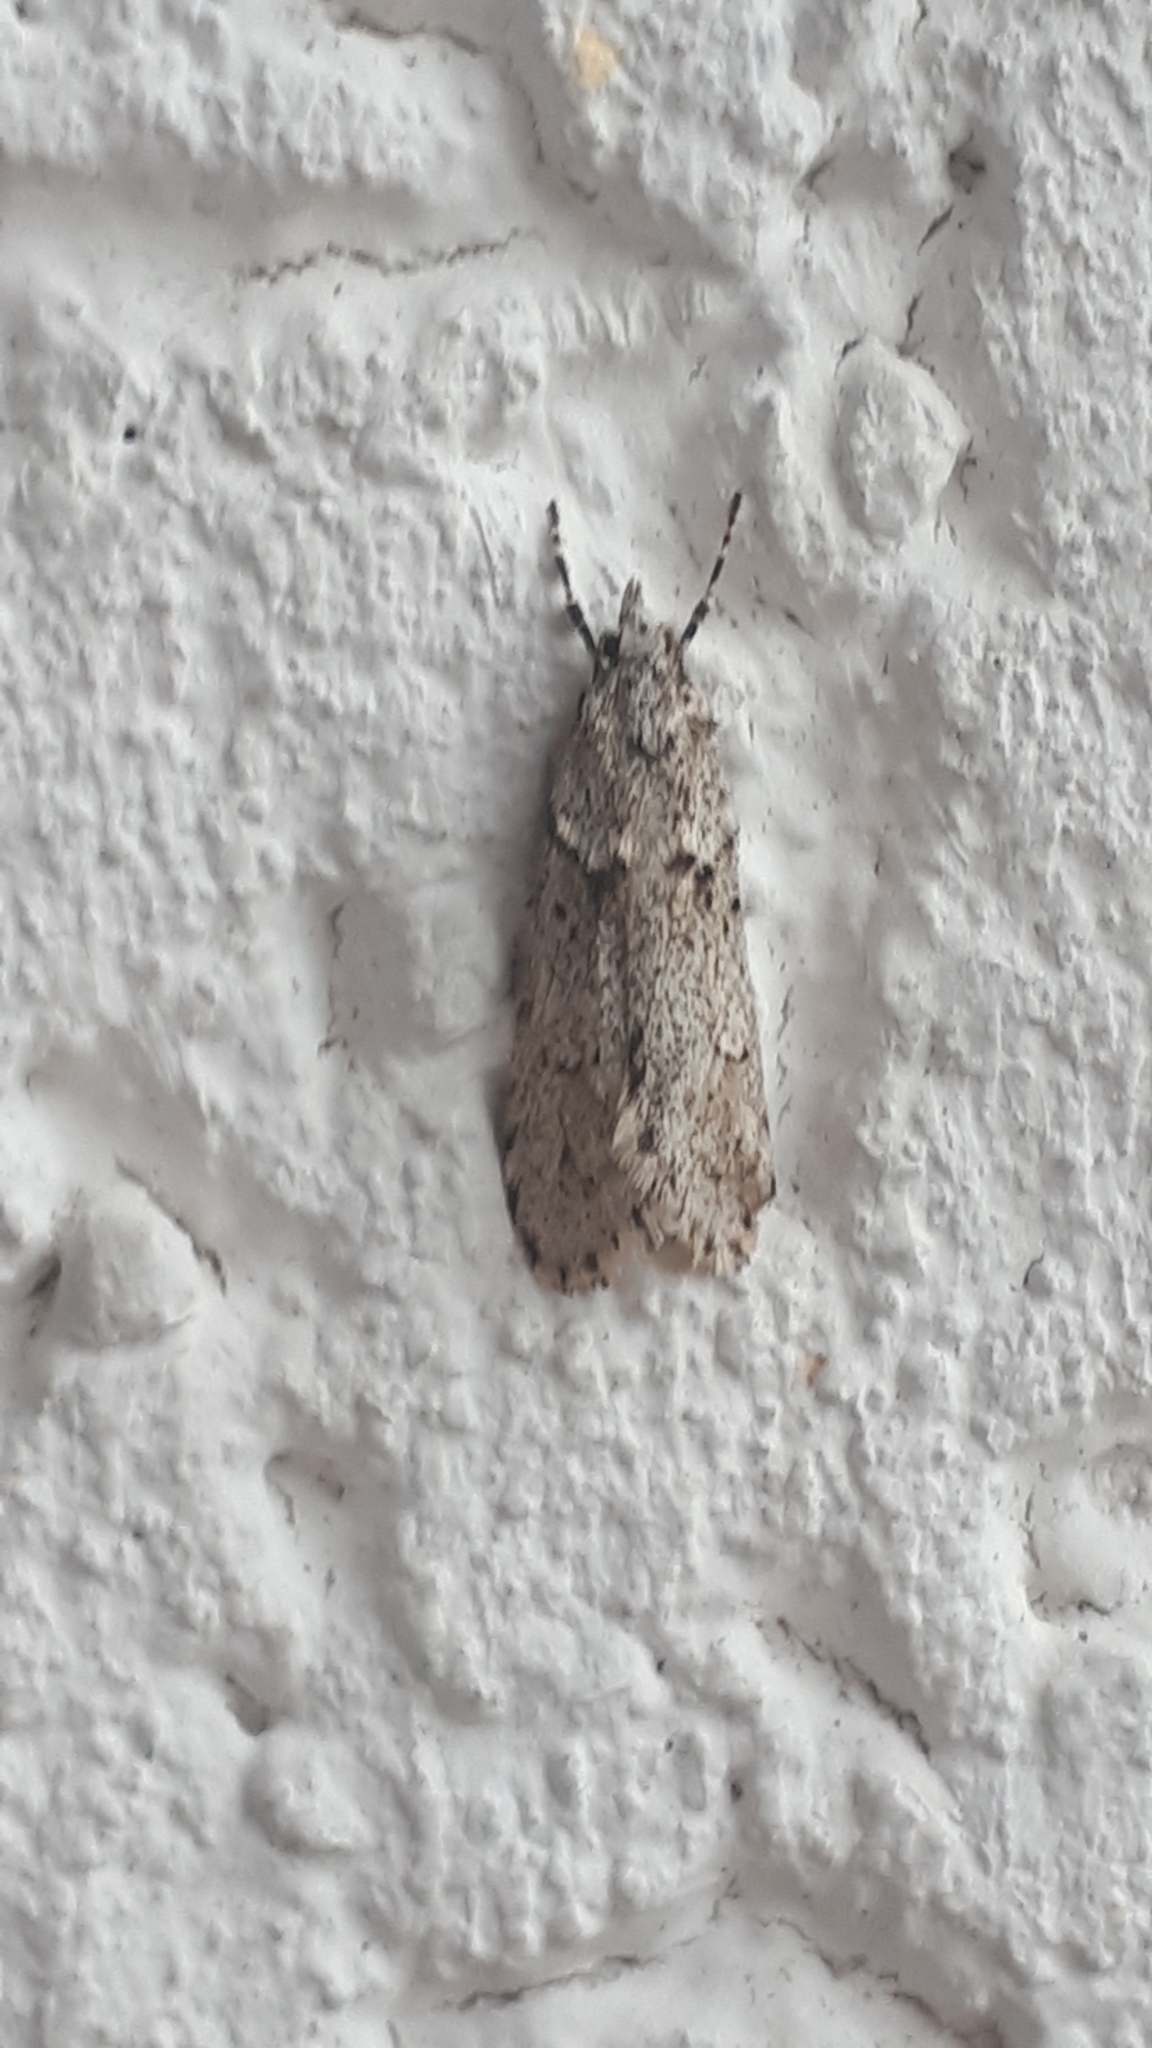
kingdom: Animalia
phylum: Arthropoda
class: Insecta
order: Lepidoptera
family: Lypusidae
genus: Diurnea
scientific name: Diurnea fagella
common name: March tubic
